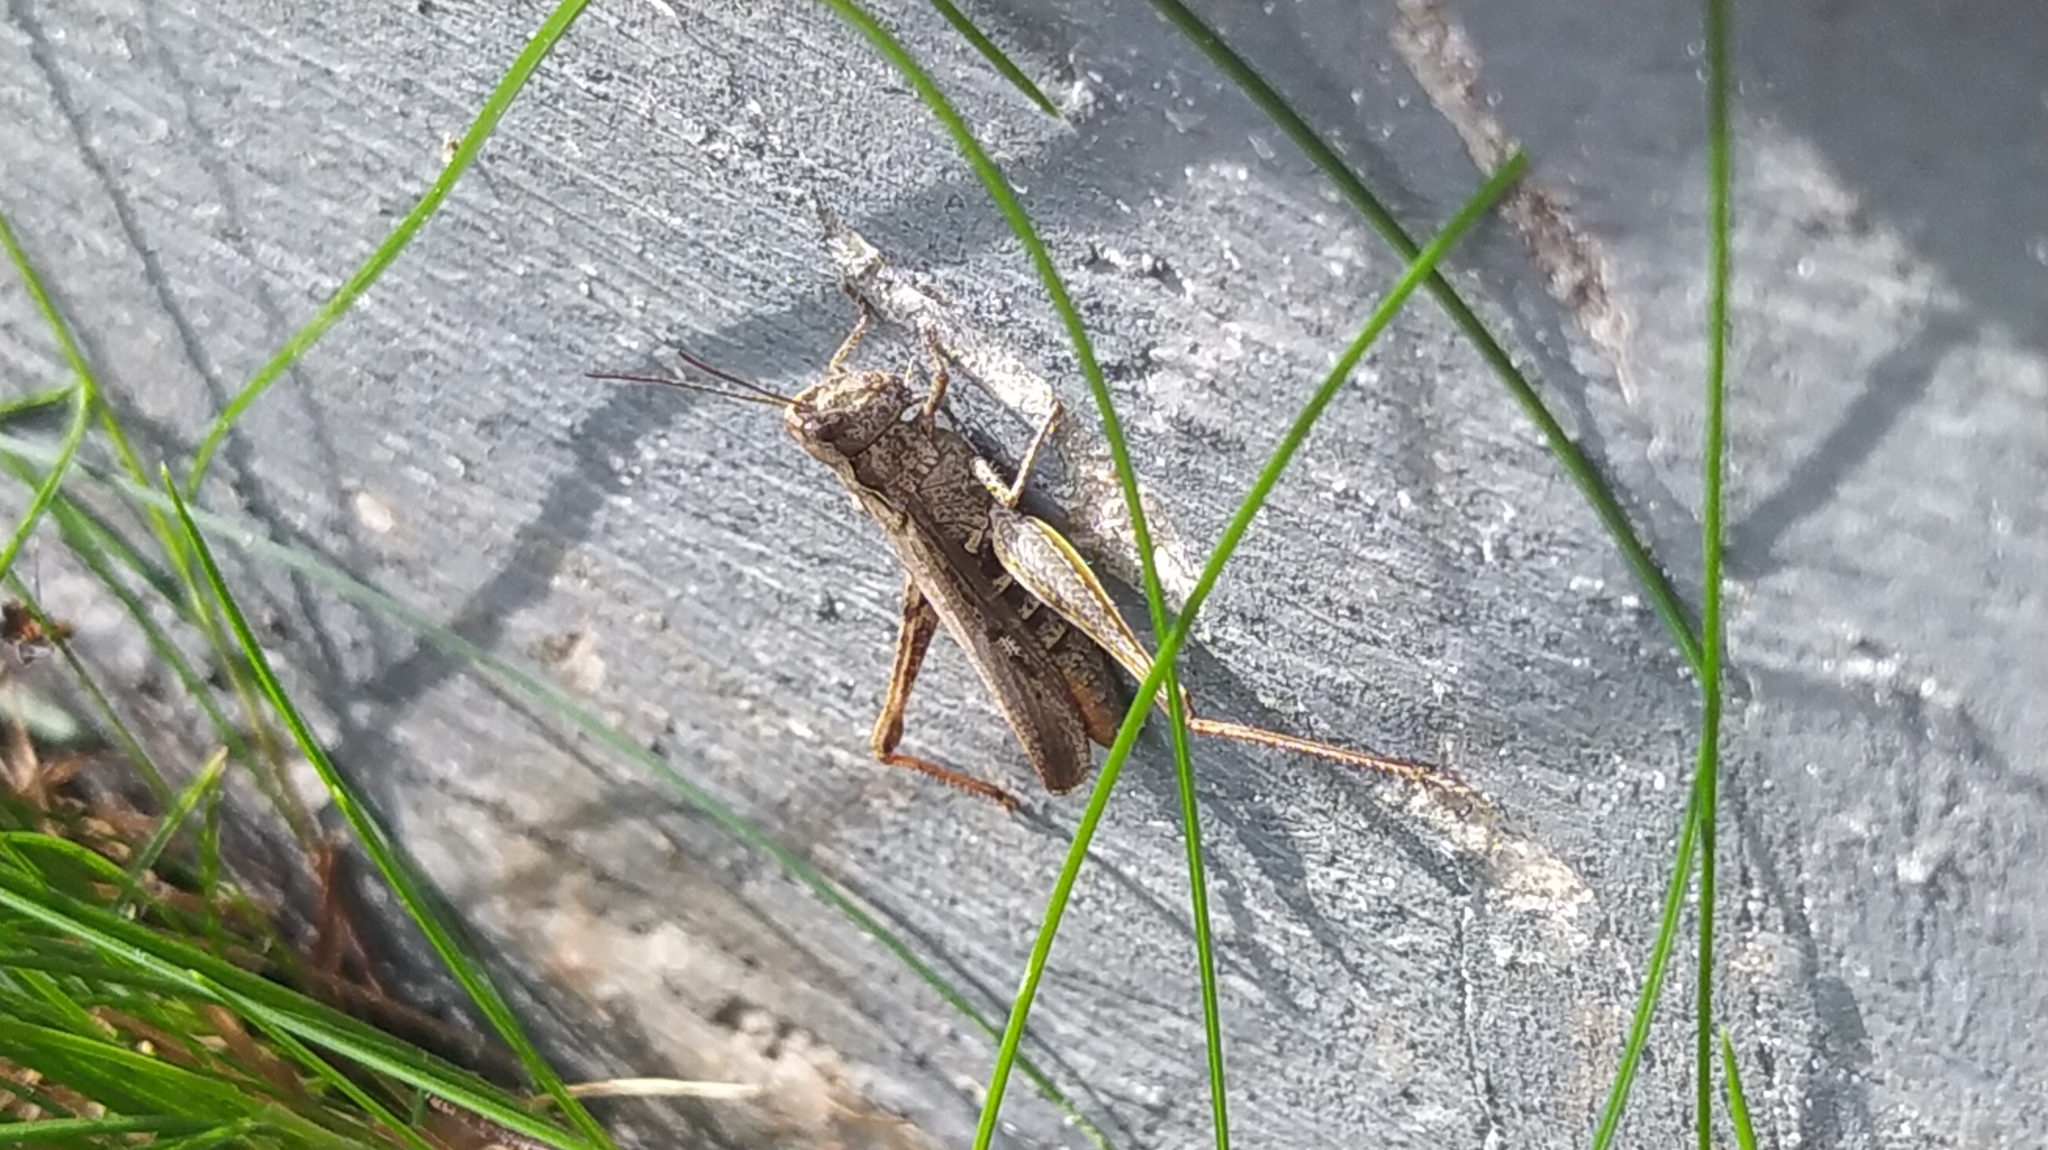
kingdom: Animalia
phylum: Arthropoda
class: Insecta
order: Orthoptera
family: Acrididae
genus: Chorthippus
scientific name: Chorthippus brunneus
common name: Field grasshopper
